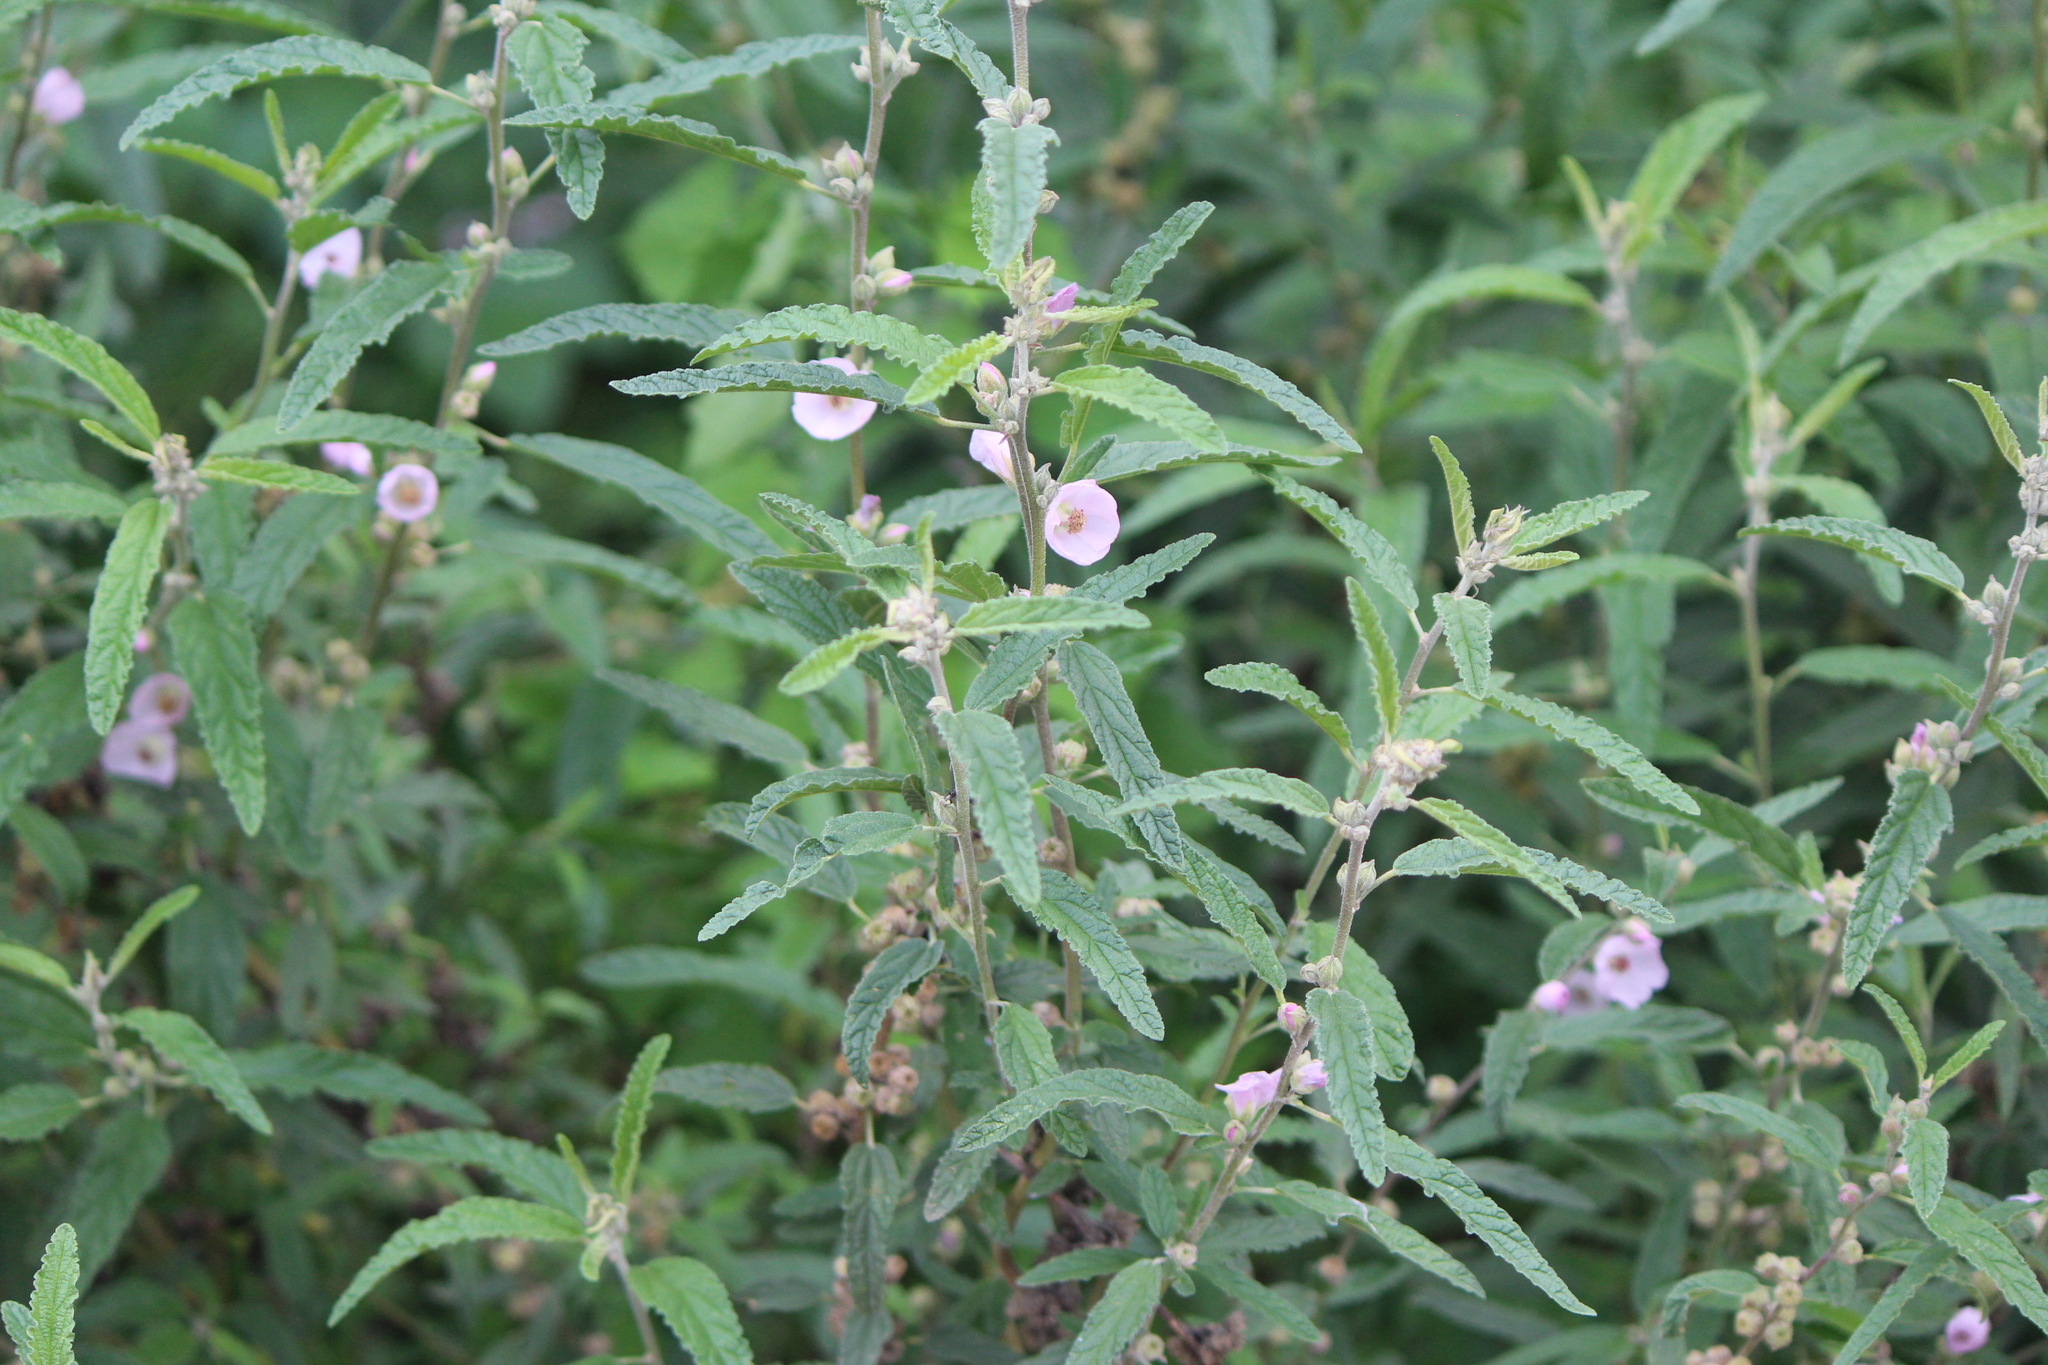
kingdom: Plantae
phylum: Tracheophyta
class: Magnoliopsida
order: Malvales
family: Malvaceae
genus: Sphaeralcea
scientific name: Sphaeralcea angustifolia
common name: Copper globe-mallow
